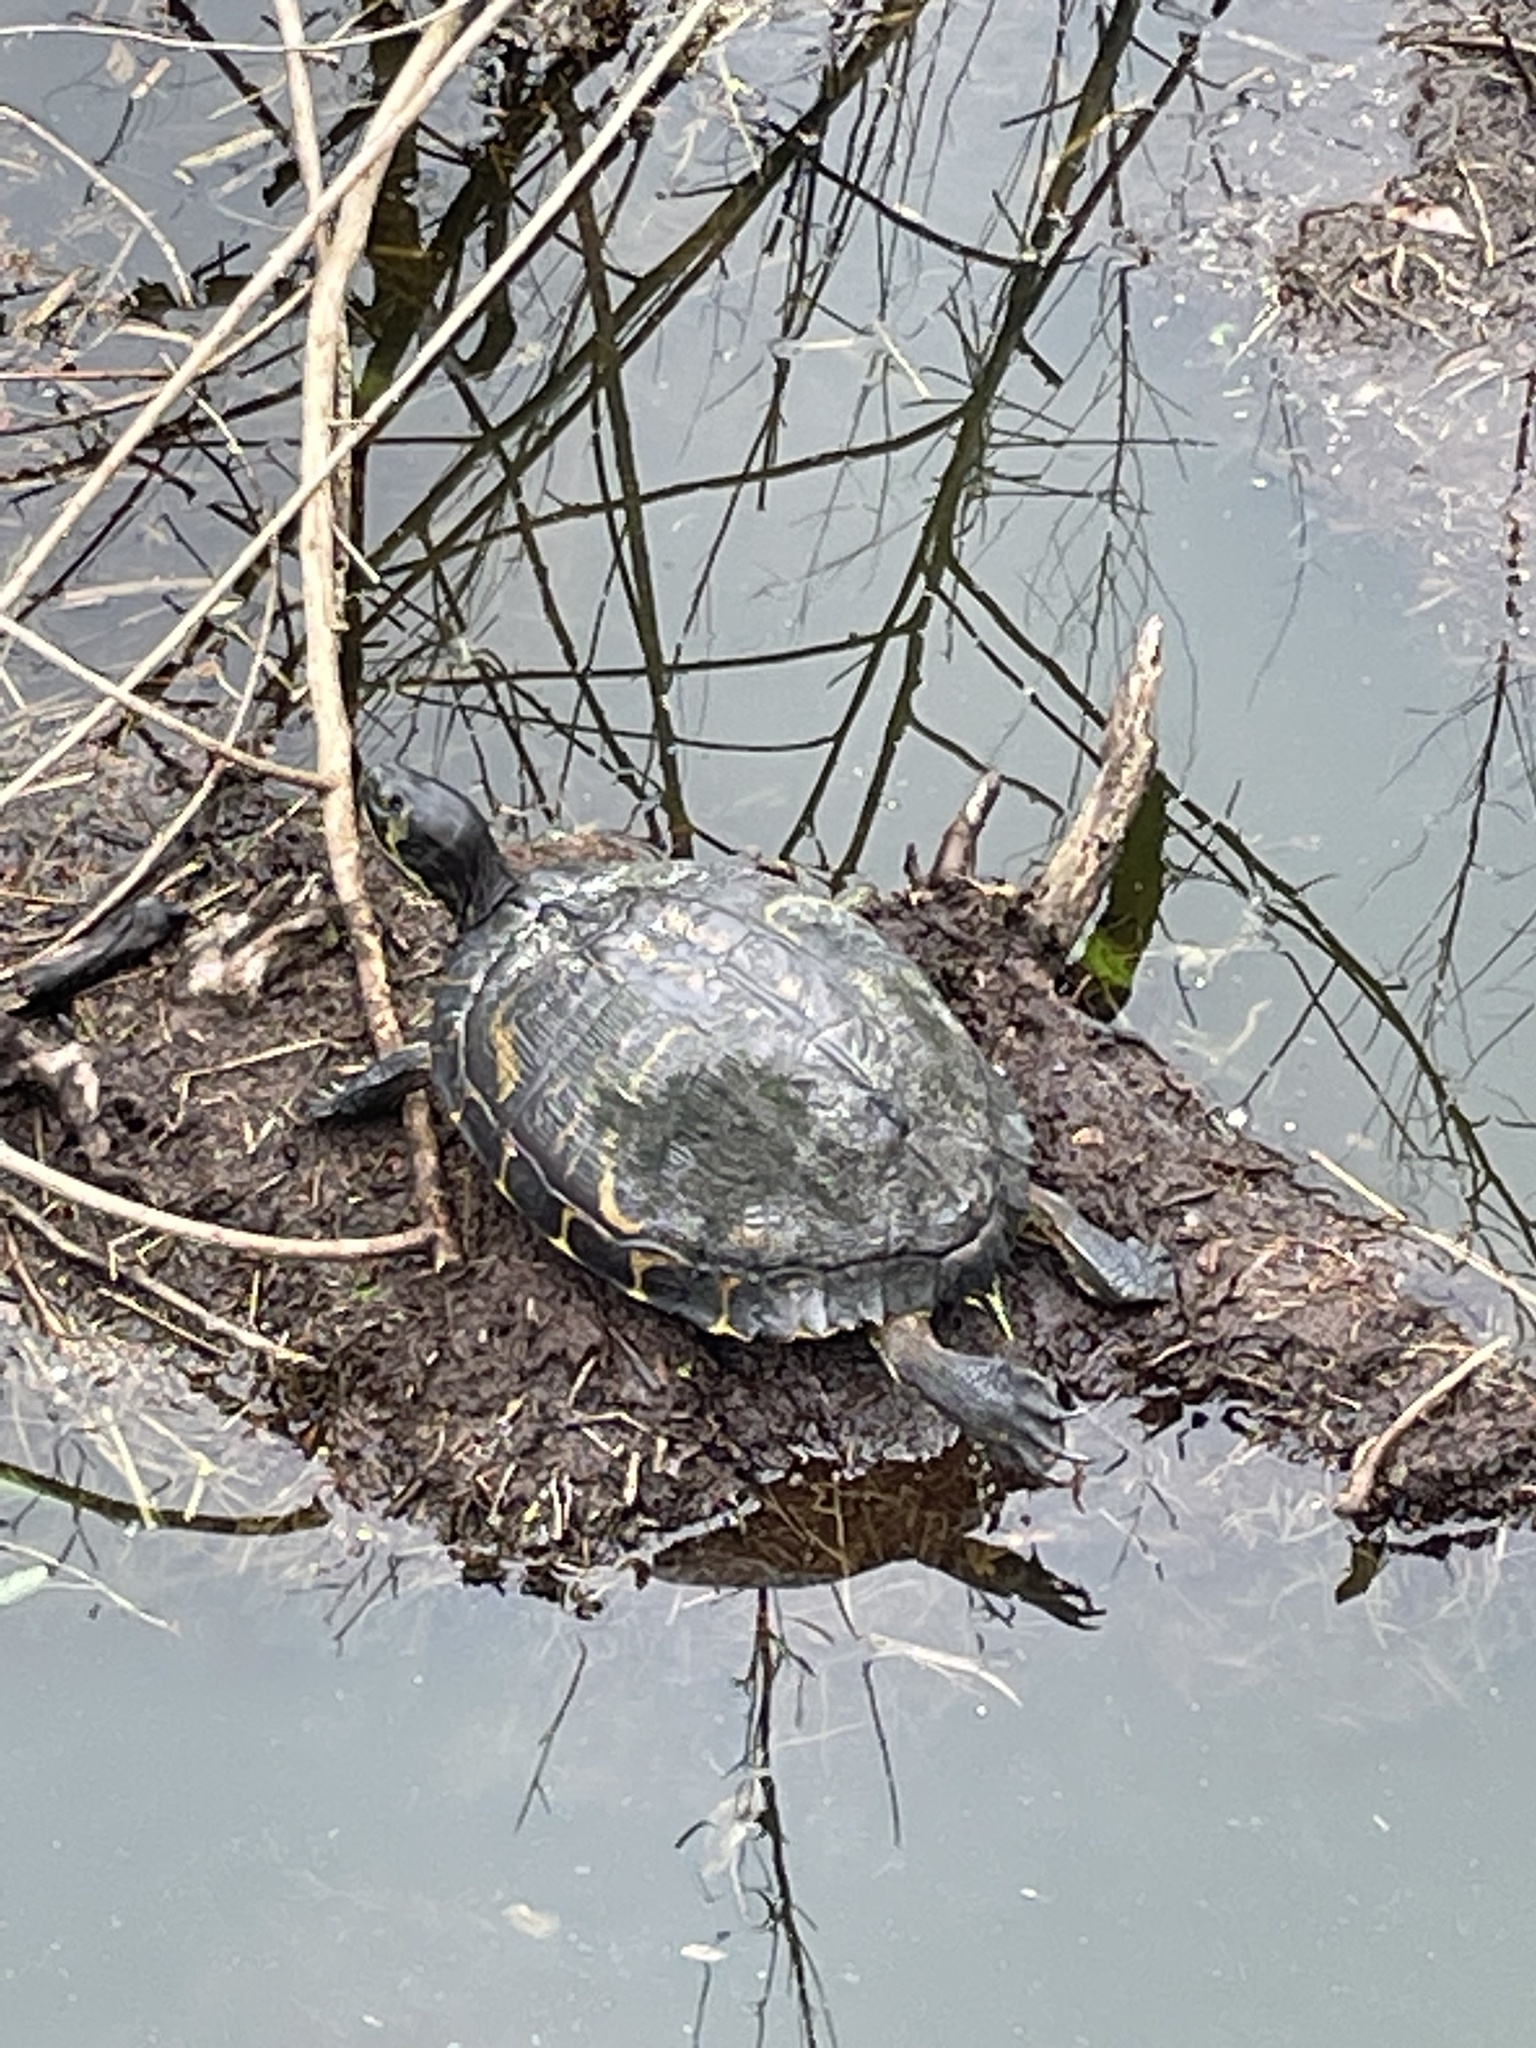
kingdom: Animalia
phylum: Chordata
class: Testudines
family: Emydidae
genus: Trachemys
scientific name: Trachemys scripta
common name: Slider
